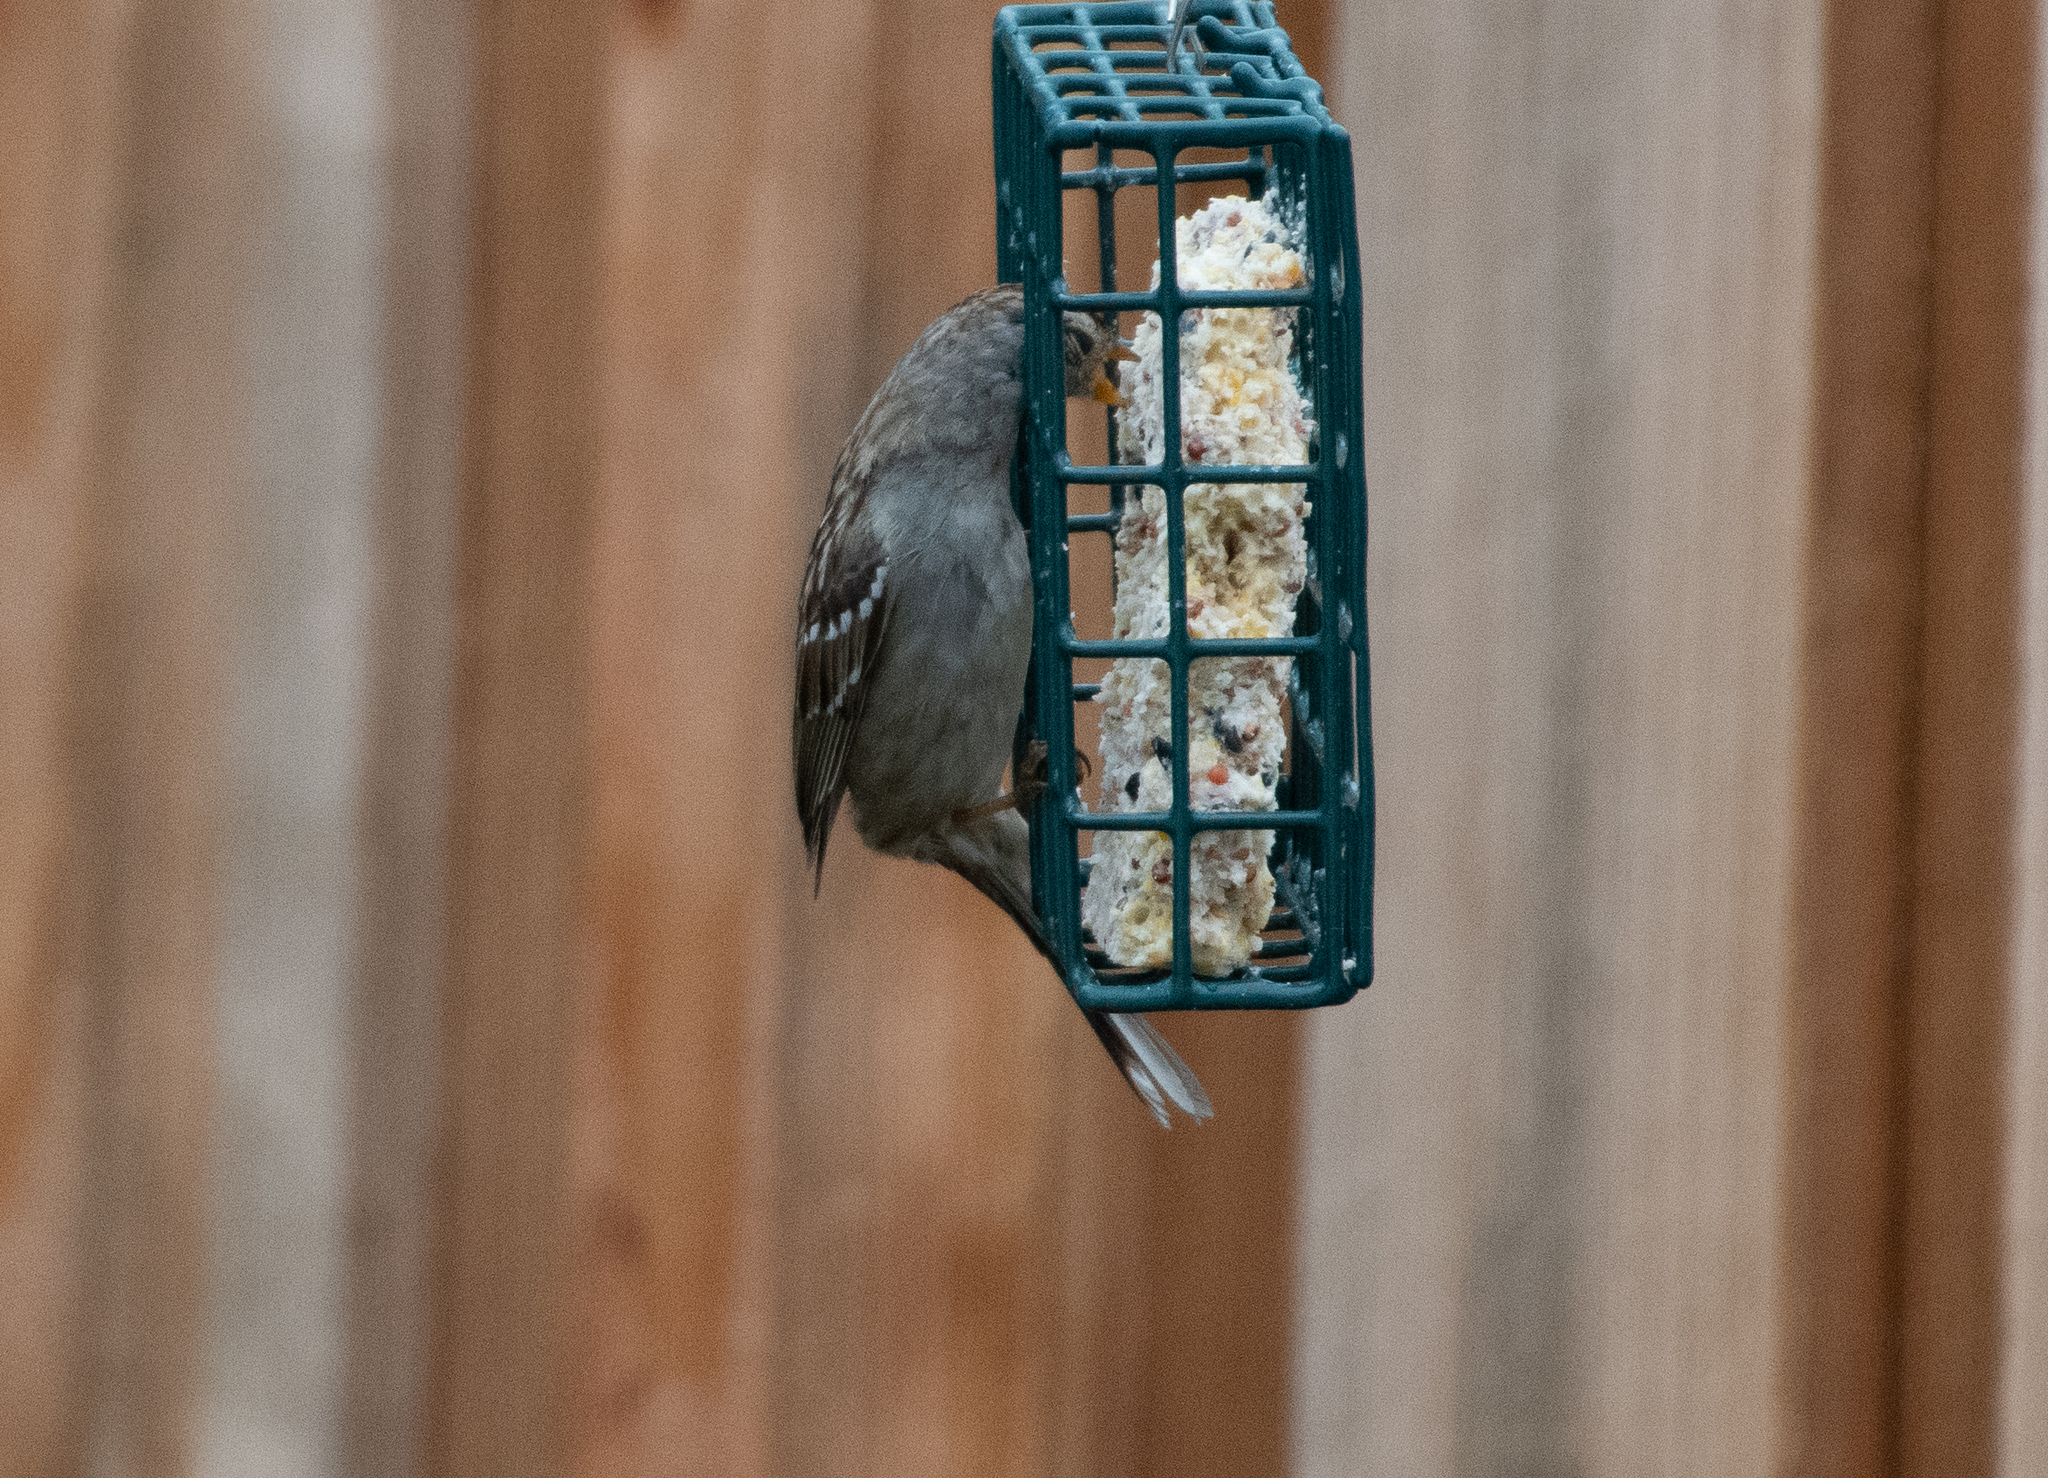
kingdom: Animalia
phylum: Chordata
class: Aves
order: Passeriformes
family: Passerellidae
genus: Zonotrichia
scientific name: Zonotrichia leucophrys
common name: White-crowned sparrow
